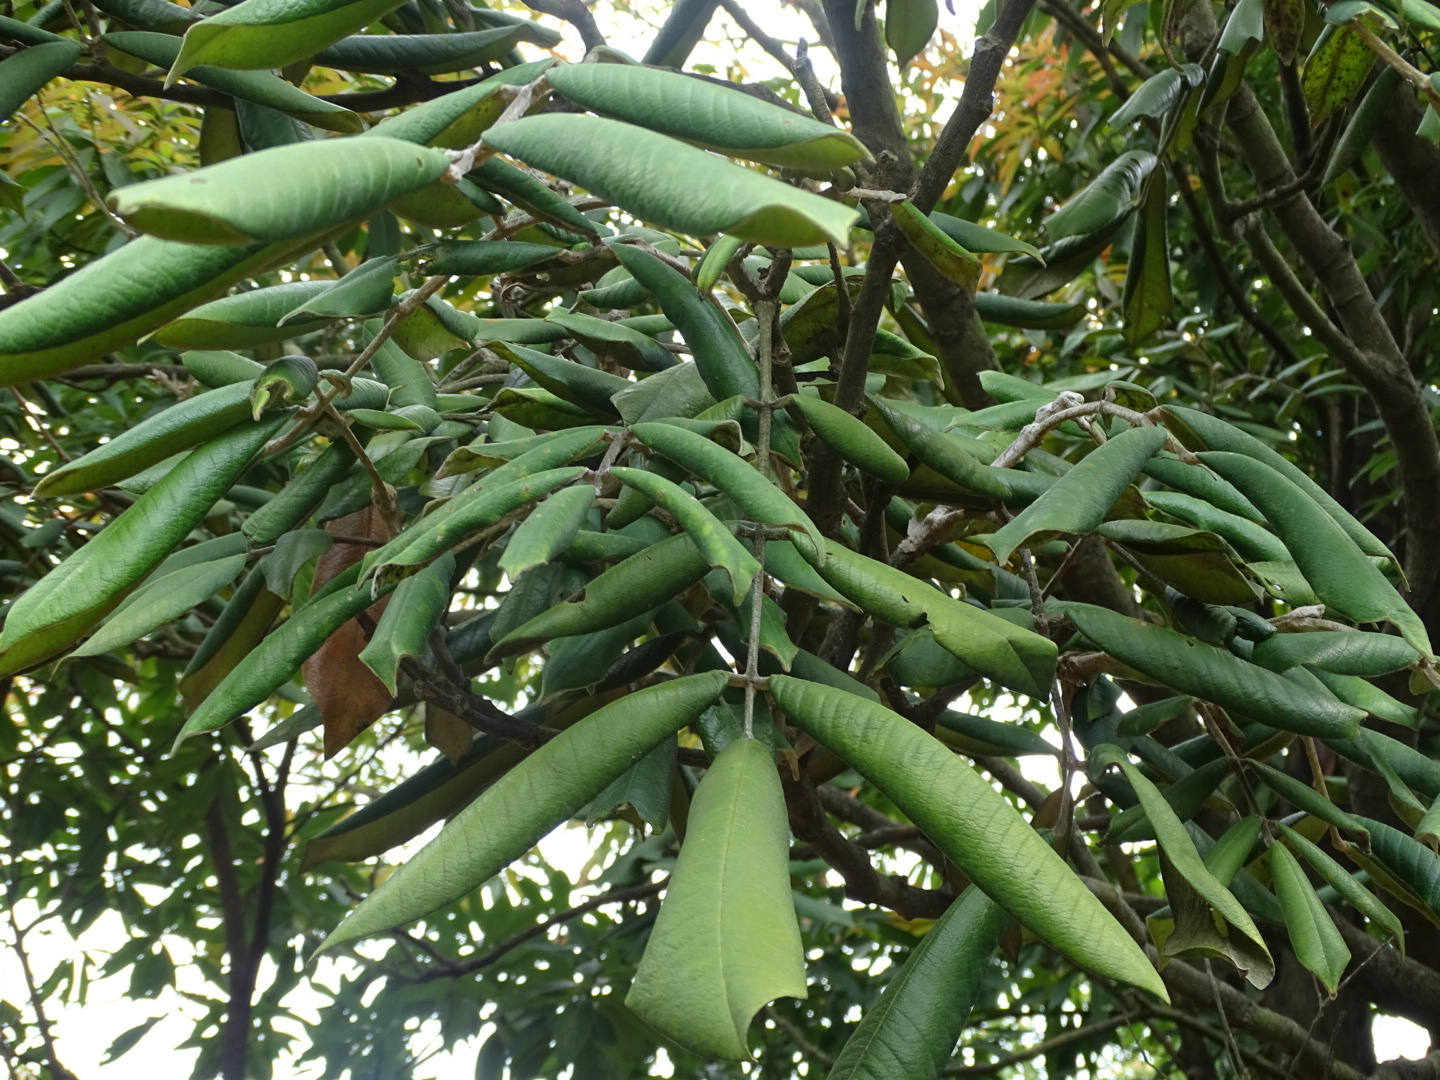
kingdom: Plantae
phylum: Tracheophyta
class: Magnoliopsida
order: Fabales
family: Fabaceae
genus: Ormosia
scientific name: Ormosia pachycarpa
